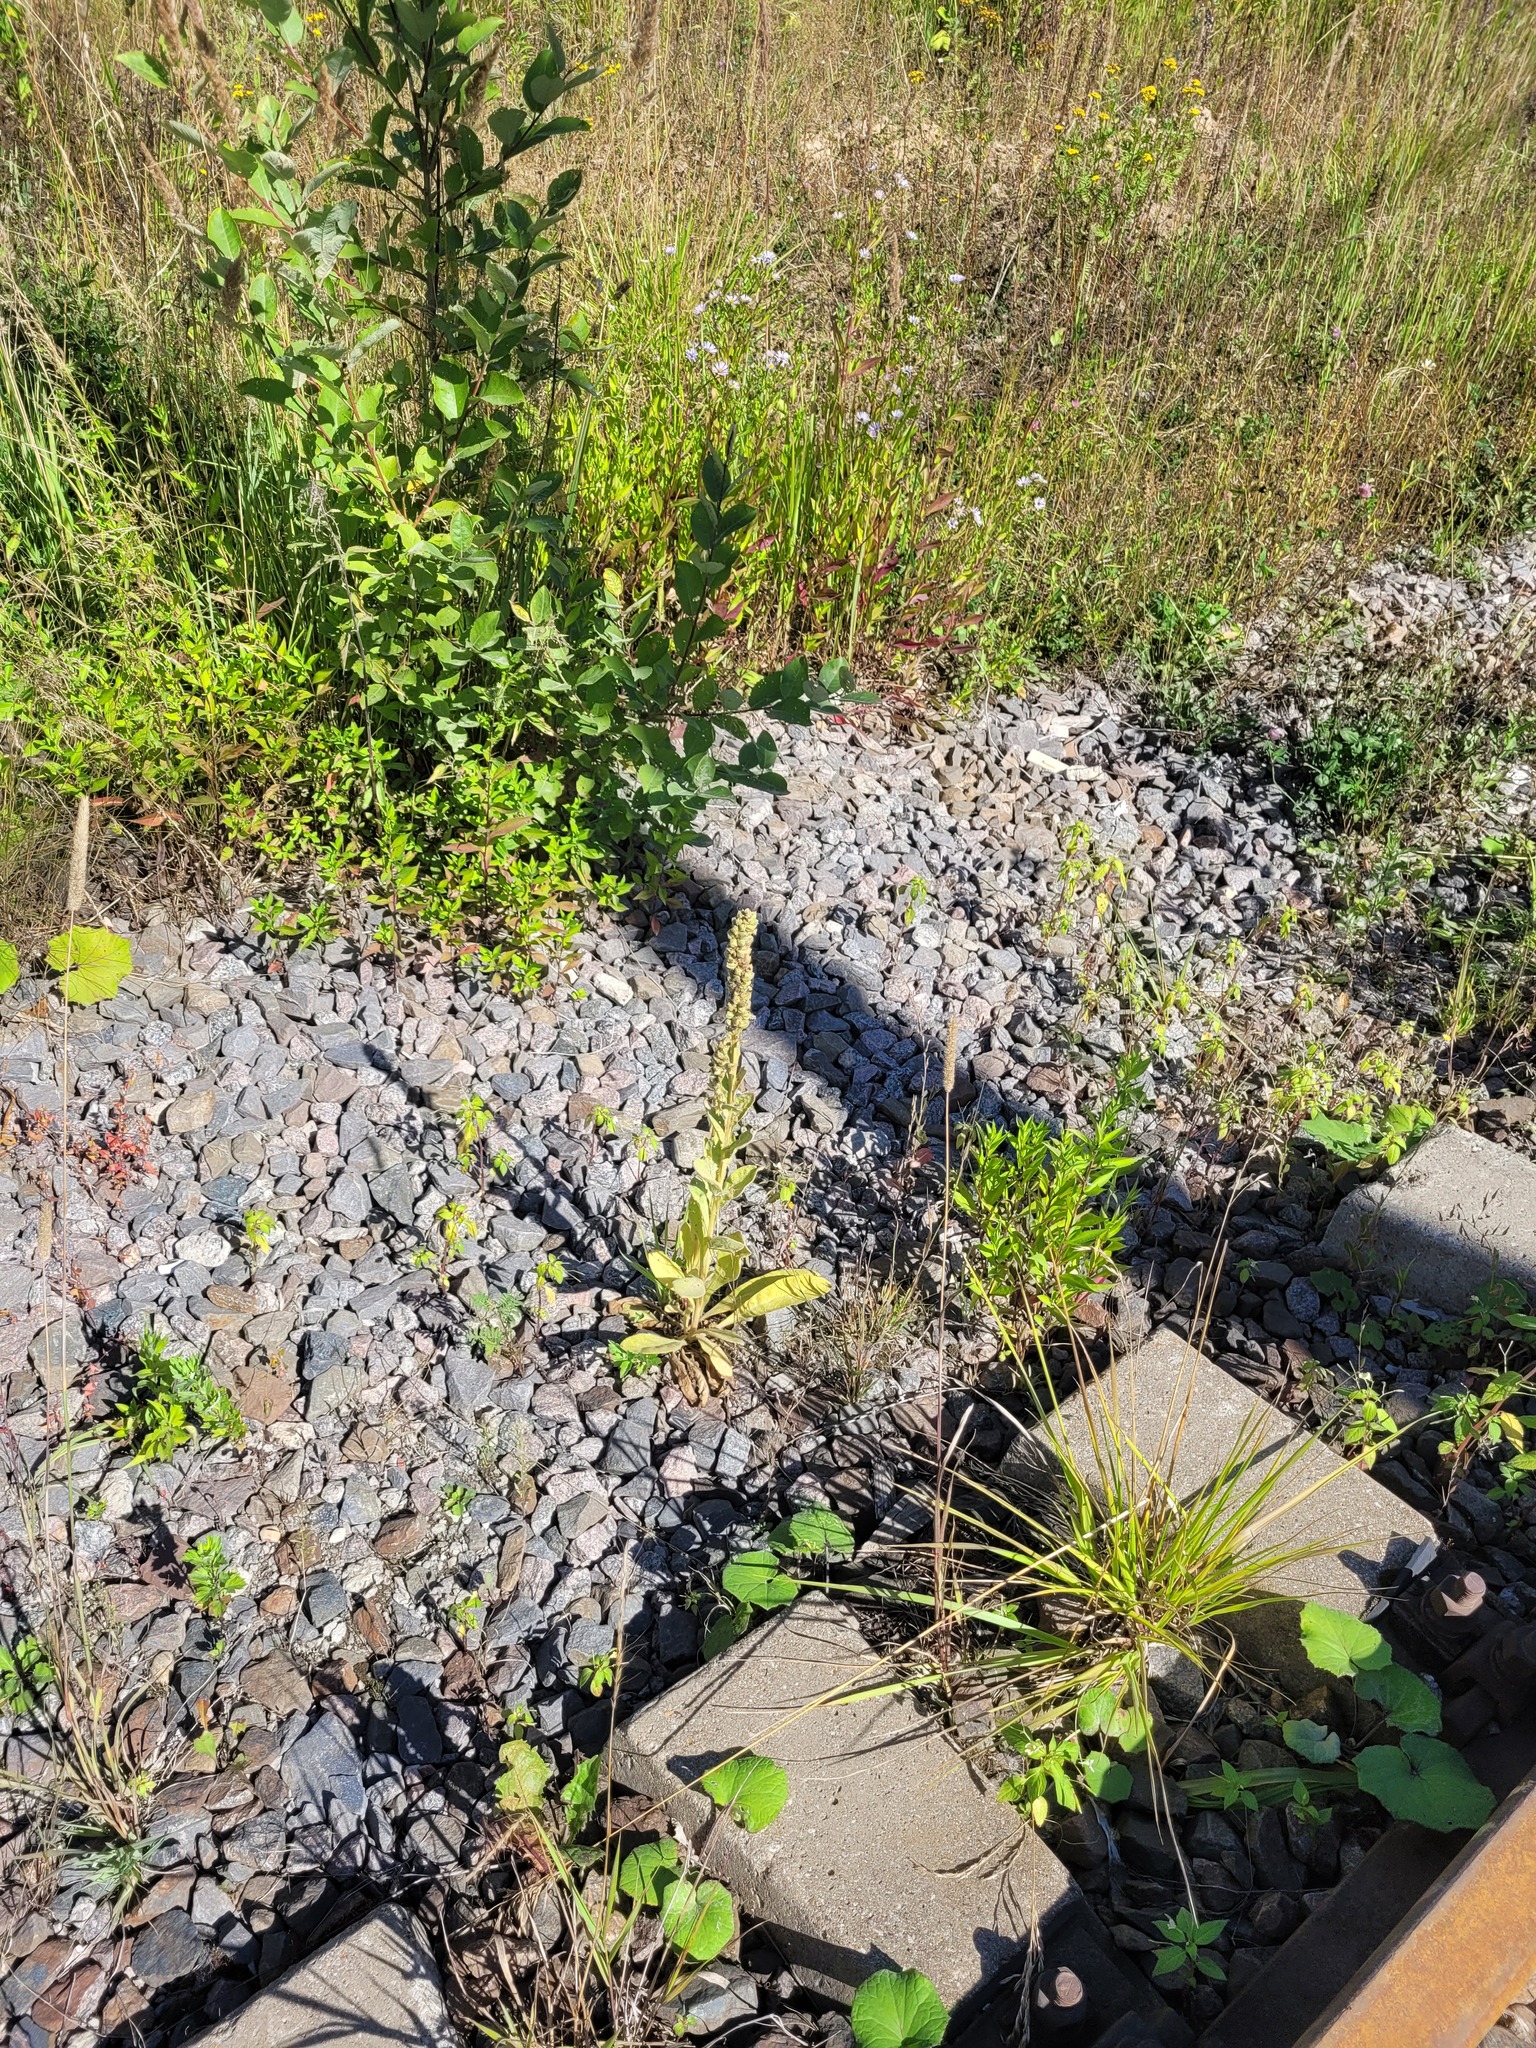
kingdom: Plantae
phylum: Tracheophyta
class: Magnoliopsida
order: Lamiales
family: Scrophulariaceae
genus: Verbascum
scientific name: Verbascum thapsus
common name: Common mullein
